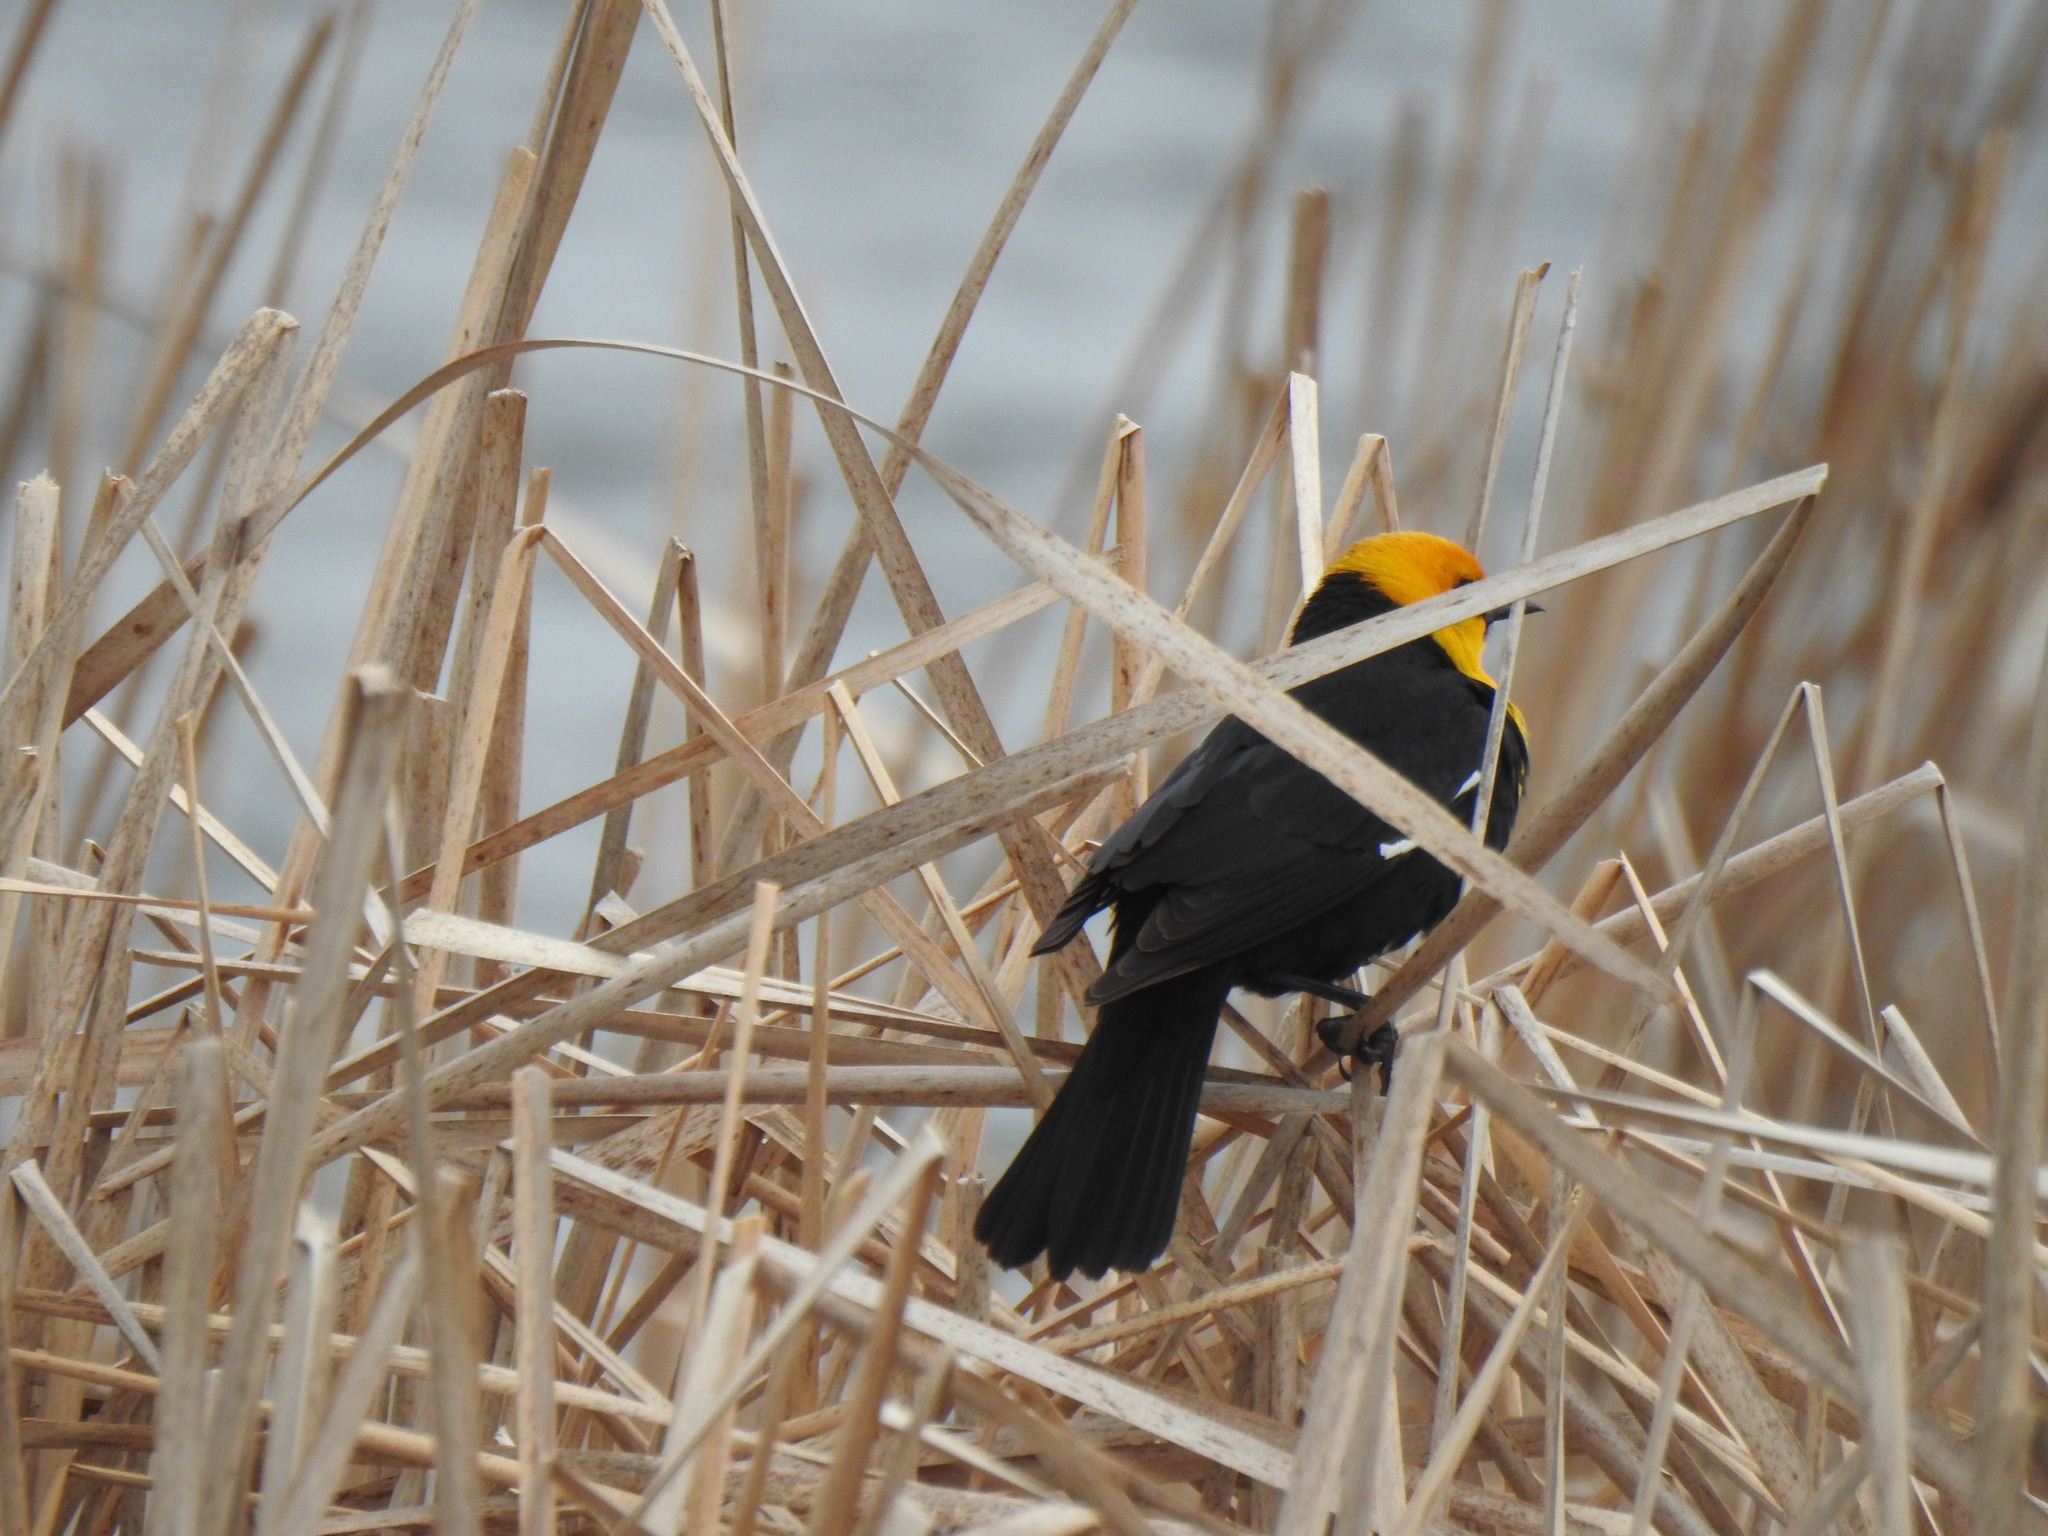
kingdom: Animalia
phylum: Chordata
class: Aves
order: Passeriformes
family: Icteridae
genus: Xanthocephalus
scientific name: Xanthocephalus xanthocephalus
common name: Yellow-headed blackbird
